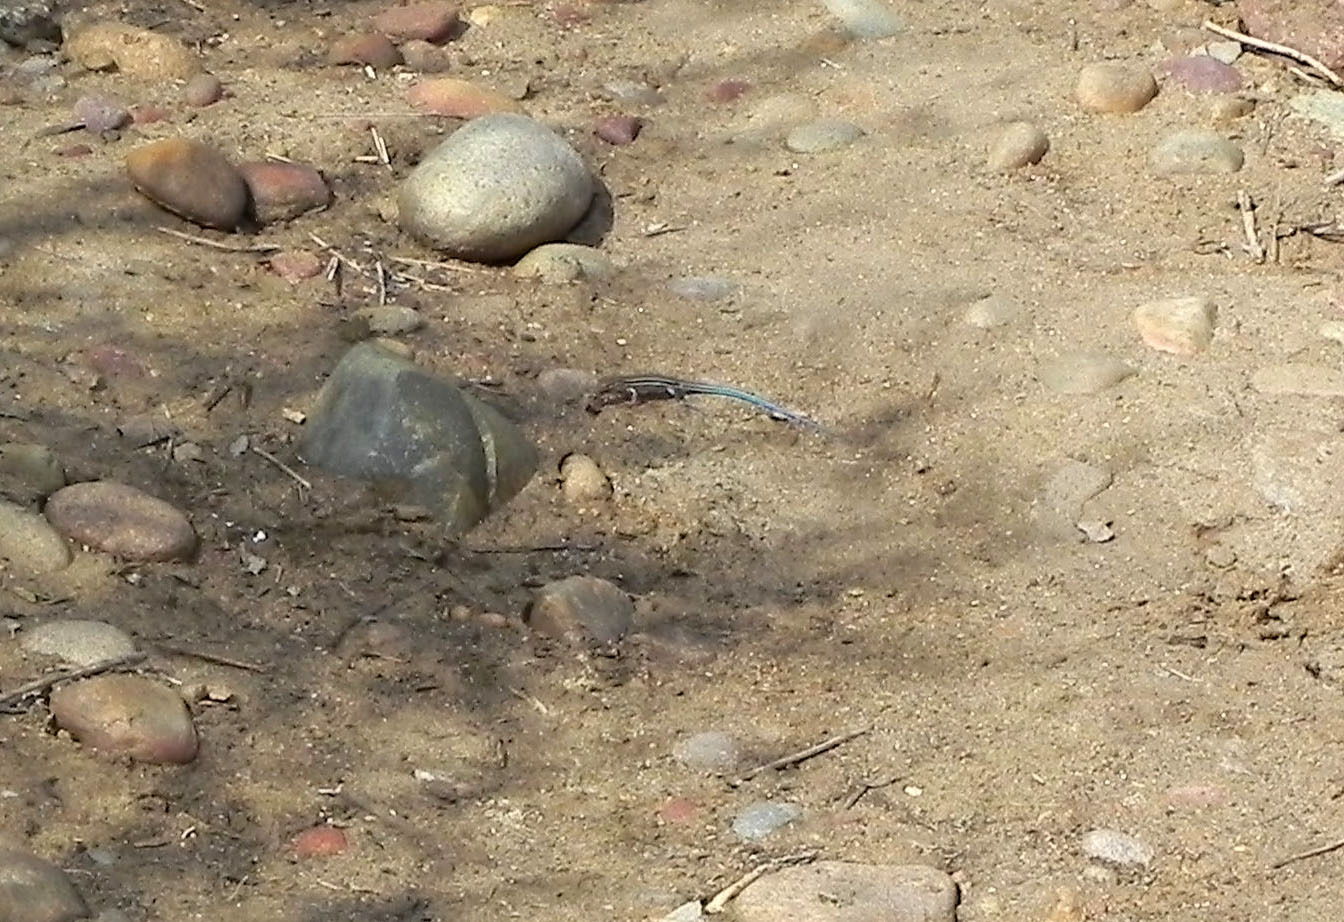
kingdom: Animalia
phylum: Chordata
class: Squamata
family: Teiidae
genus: Aspidoscelis
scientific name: Aspidoscelis hyperythrus
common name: Orange-throated race-runner
